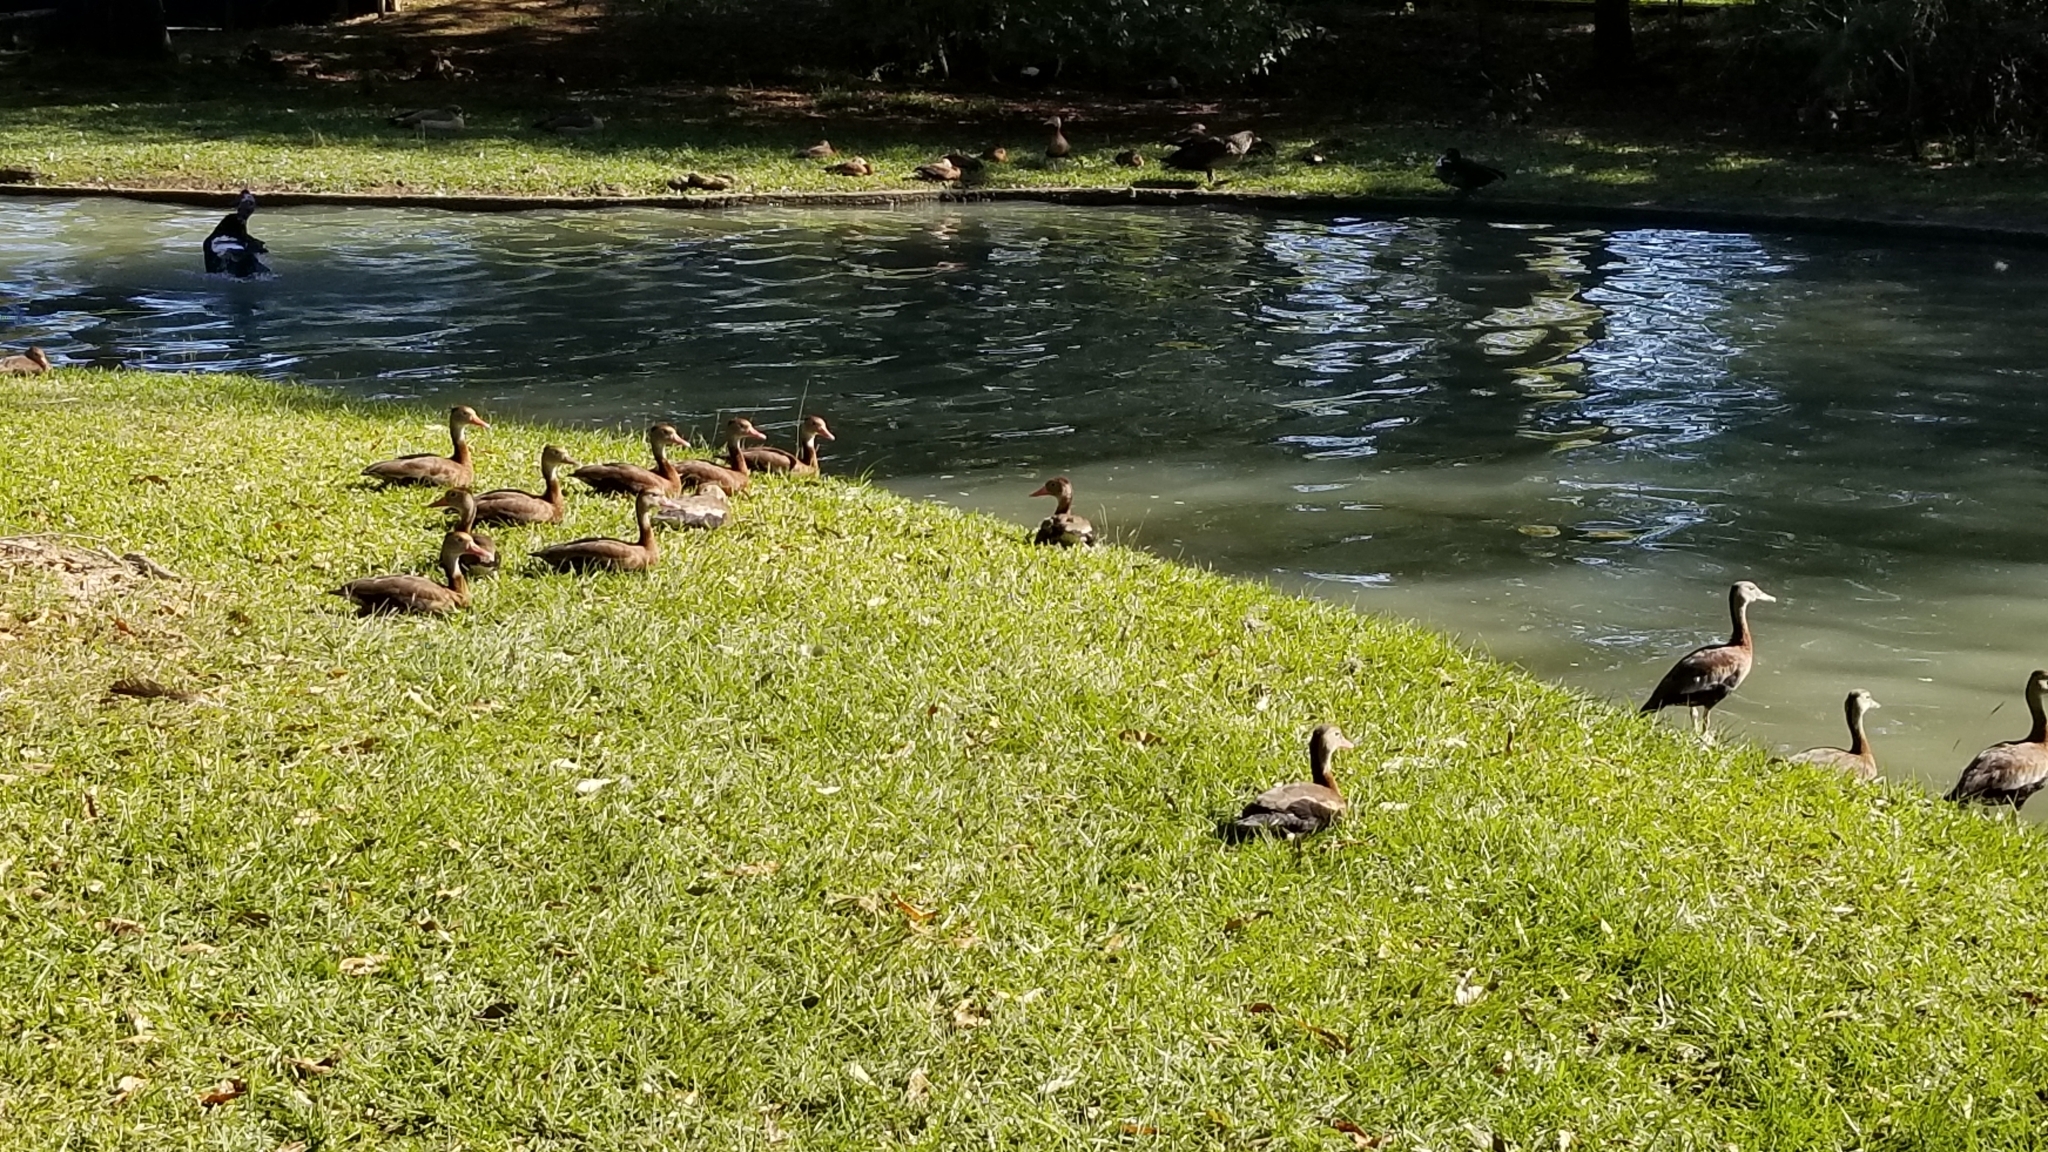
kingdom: Animalia
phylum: Chordata
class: Aves
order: Anseriformes
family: Anatidae
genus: Dendrocygna
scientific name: Dendrocygna autumnalis
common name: Black-bellied whistling duck
